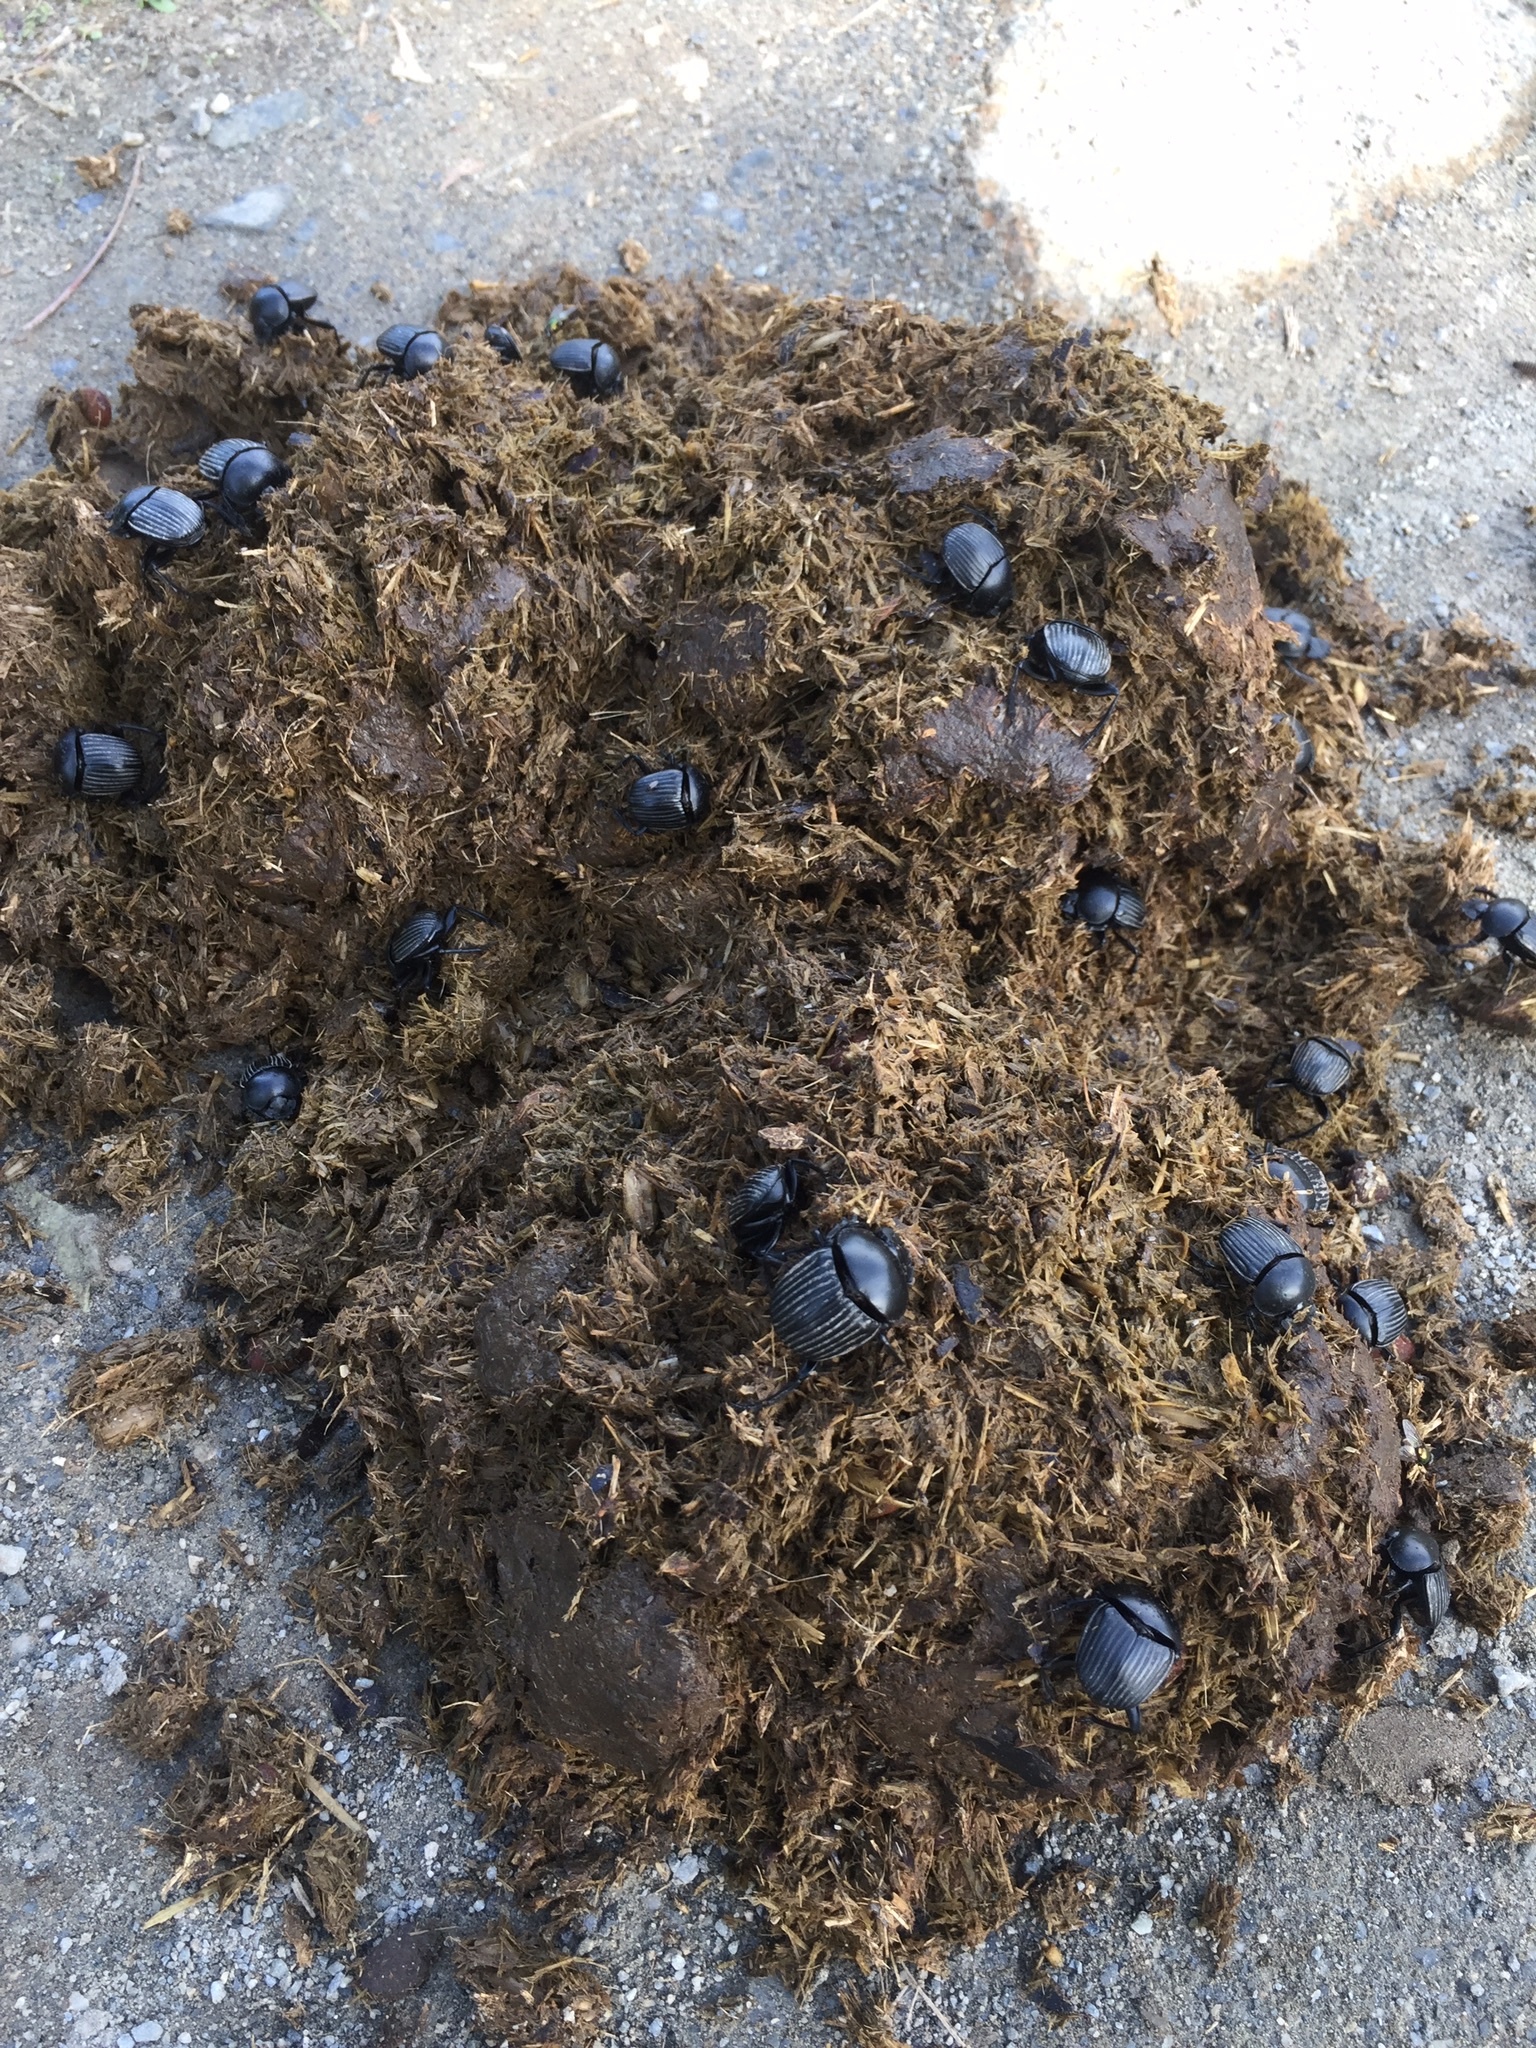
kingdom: Animalia
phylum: Arthropoda
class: Insecta
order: Coleoptera
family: Scarabaeidae
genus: Ateuchetus
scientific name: Ateuchetus laticollis
